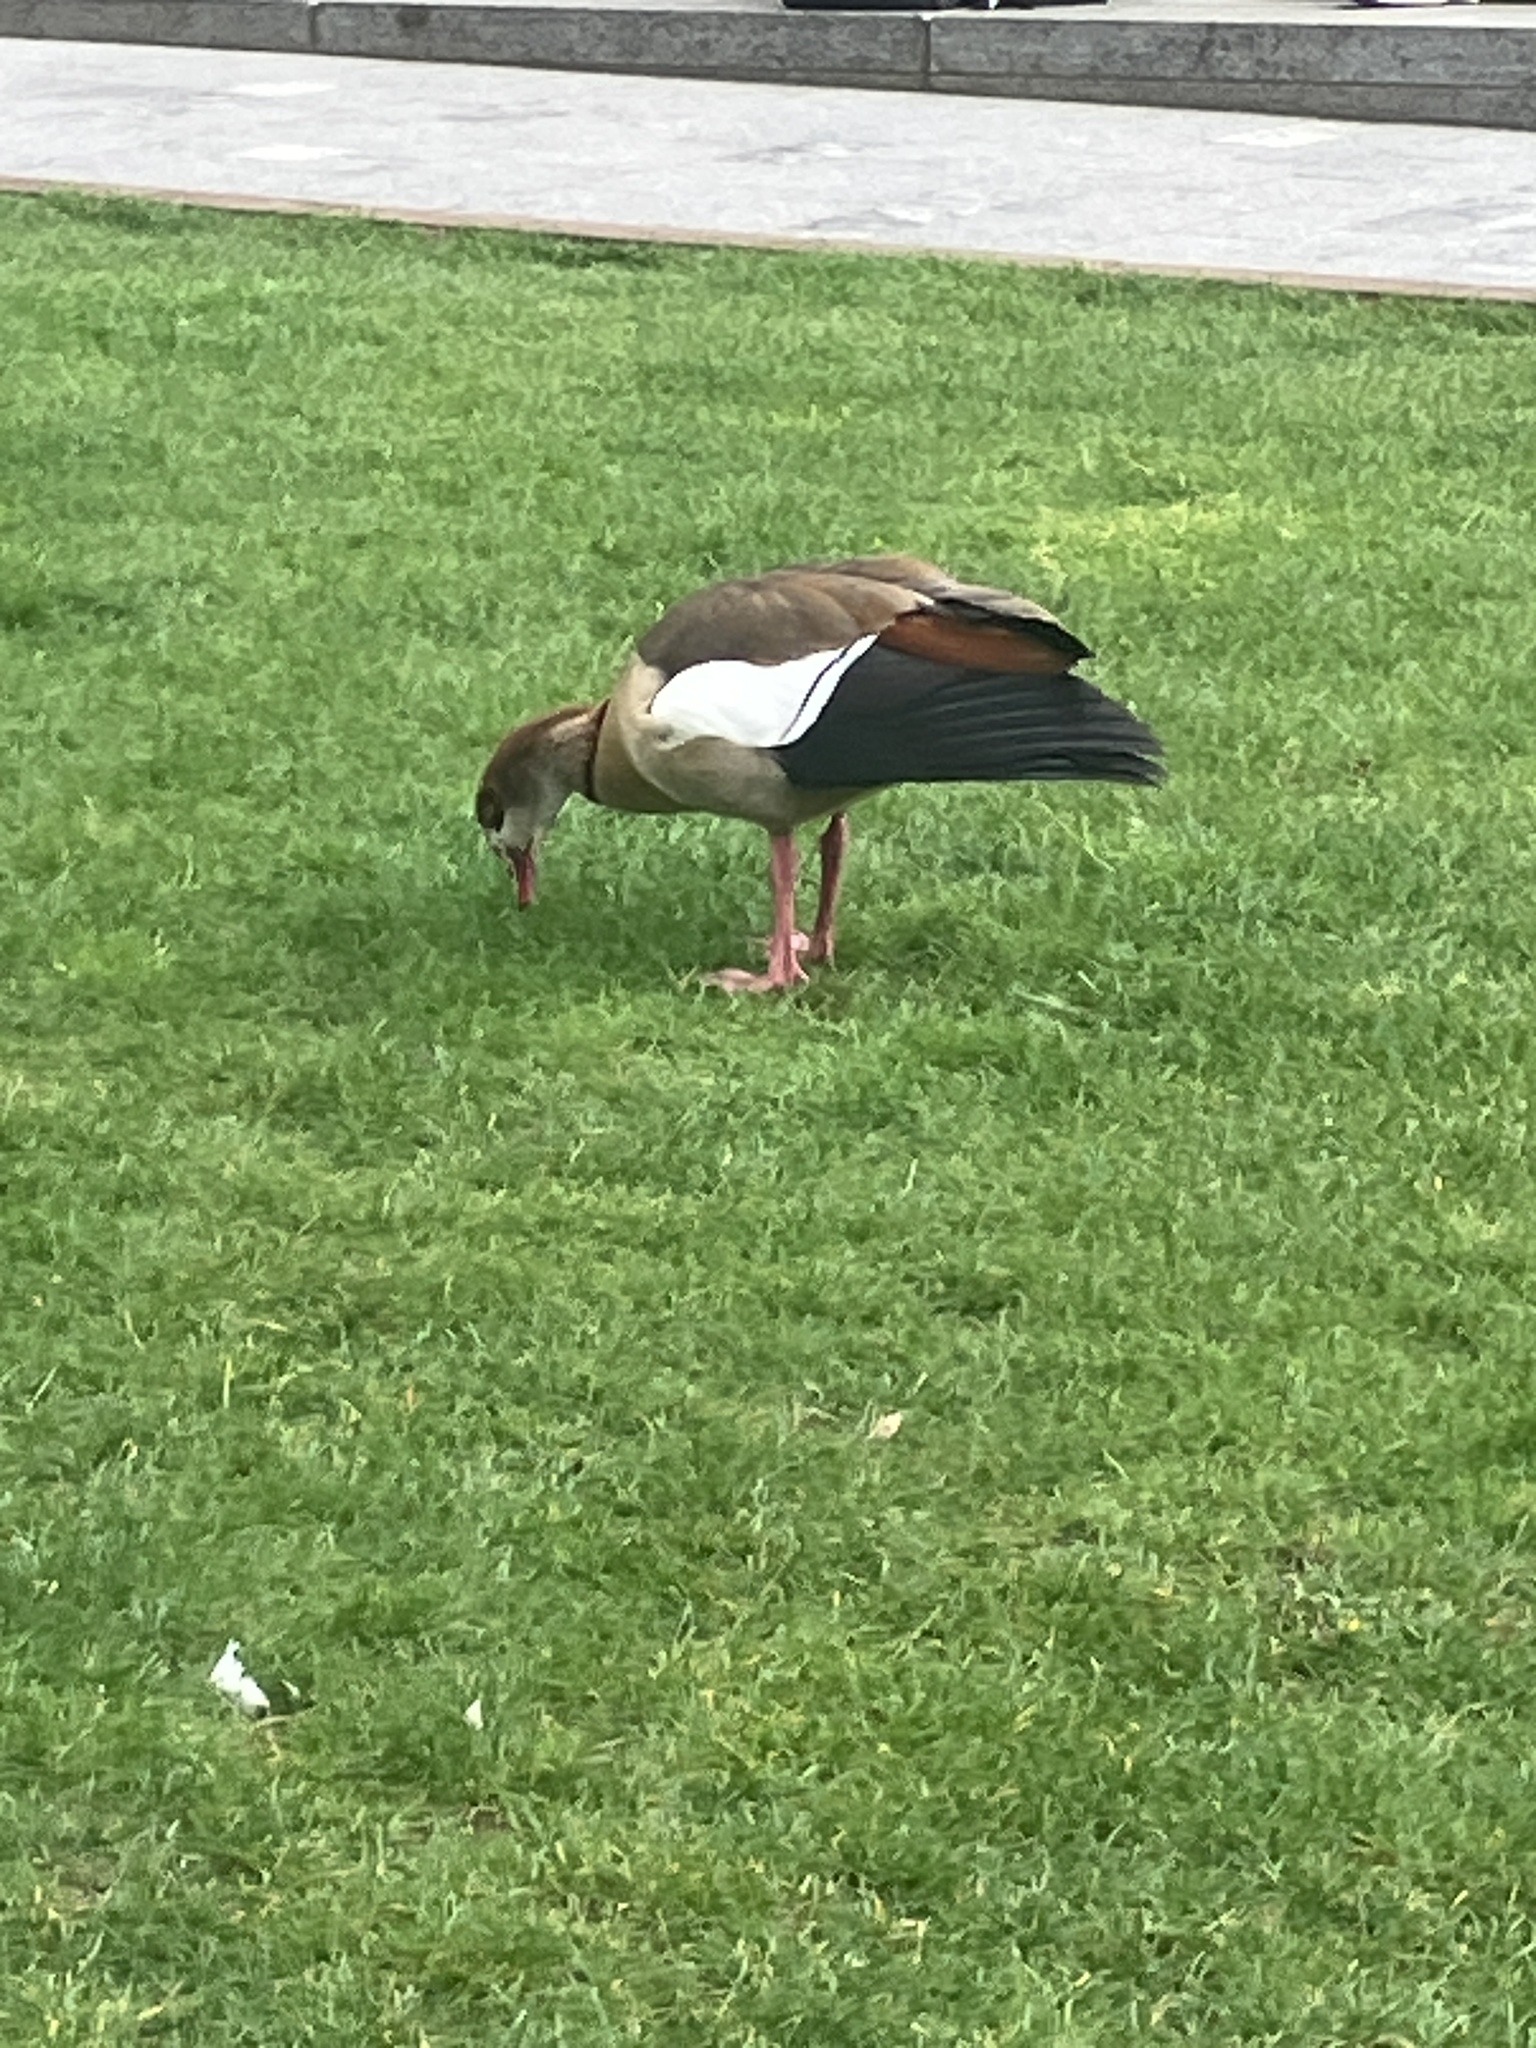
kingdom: Animalia
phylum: Chordata
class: Aves
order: Anseriformes
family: Anatidae
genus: Alopochen
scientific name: Alopochen aegyptiaca
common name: Egyptian goose
